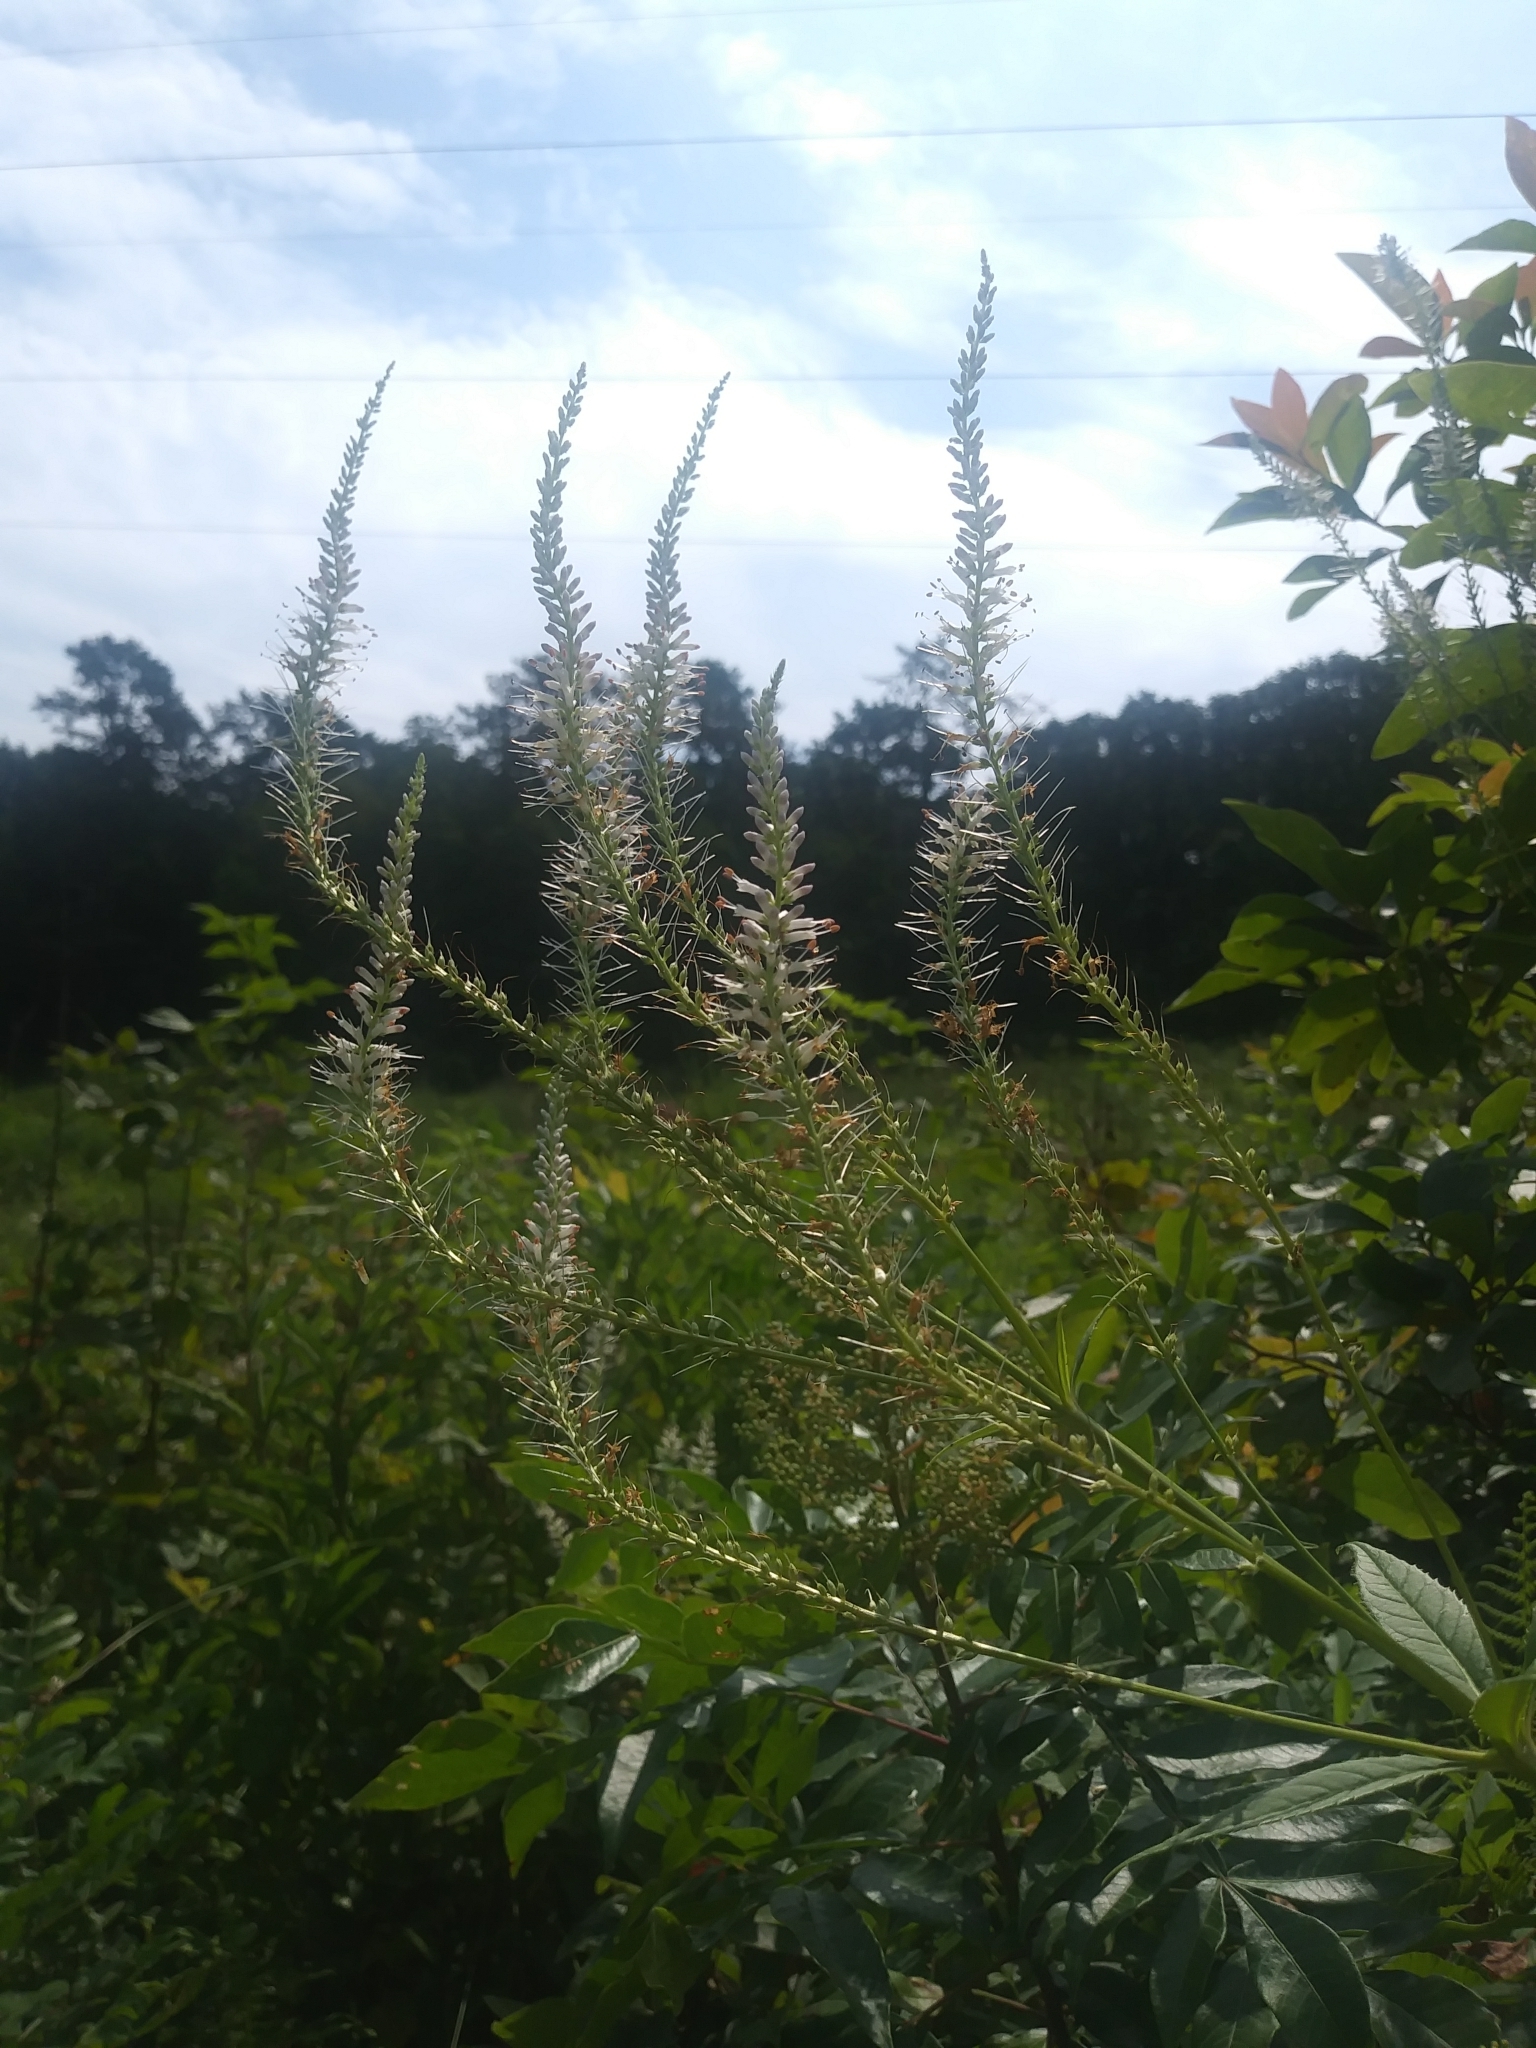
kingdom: Plantae
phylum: Tracheophyta
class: Magnoliopsida
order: Lamiales
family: Plantaginaceae
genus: Veronicastrum
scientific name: Veronicastrum virginicum
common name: Blackroot
